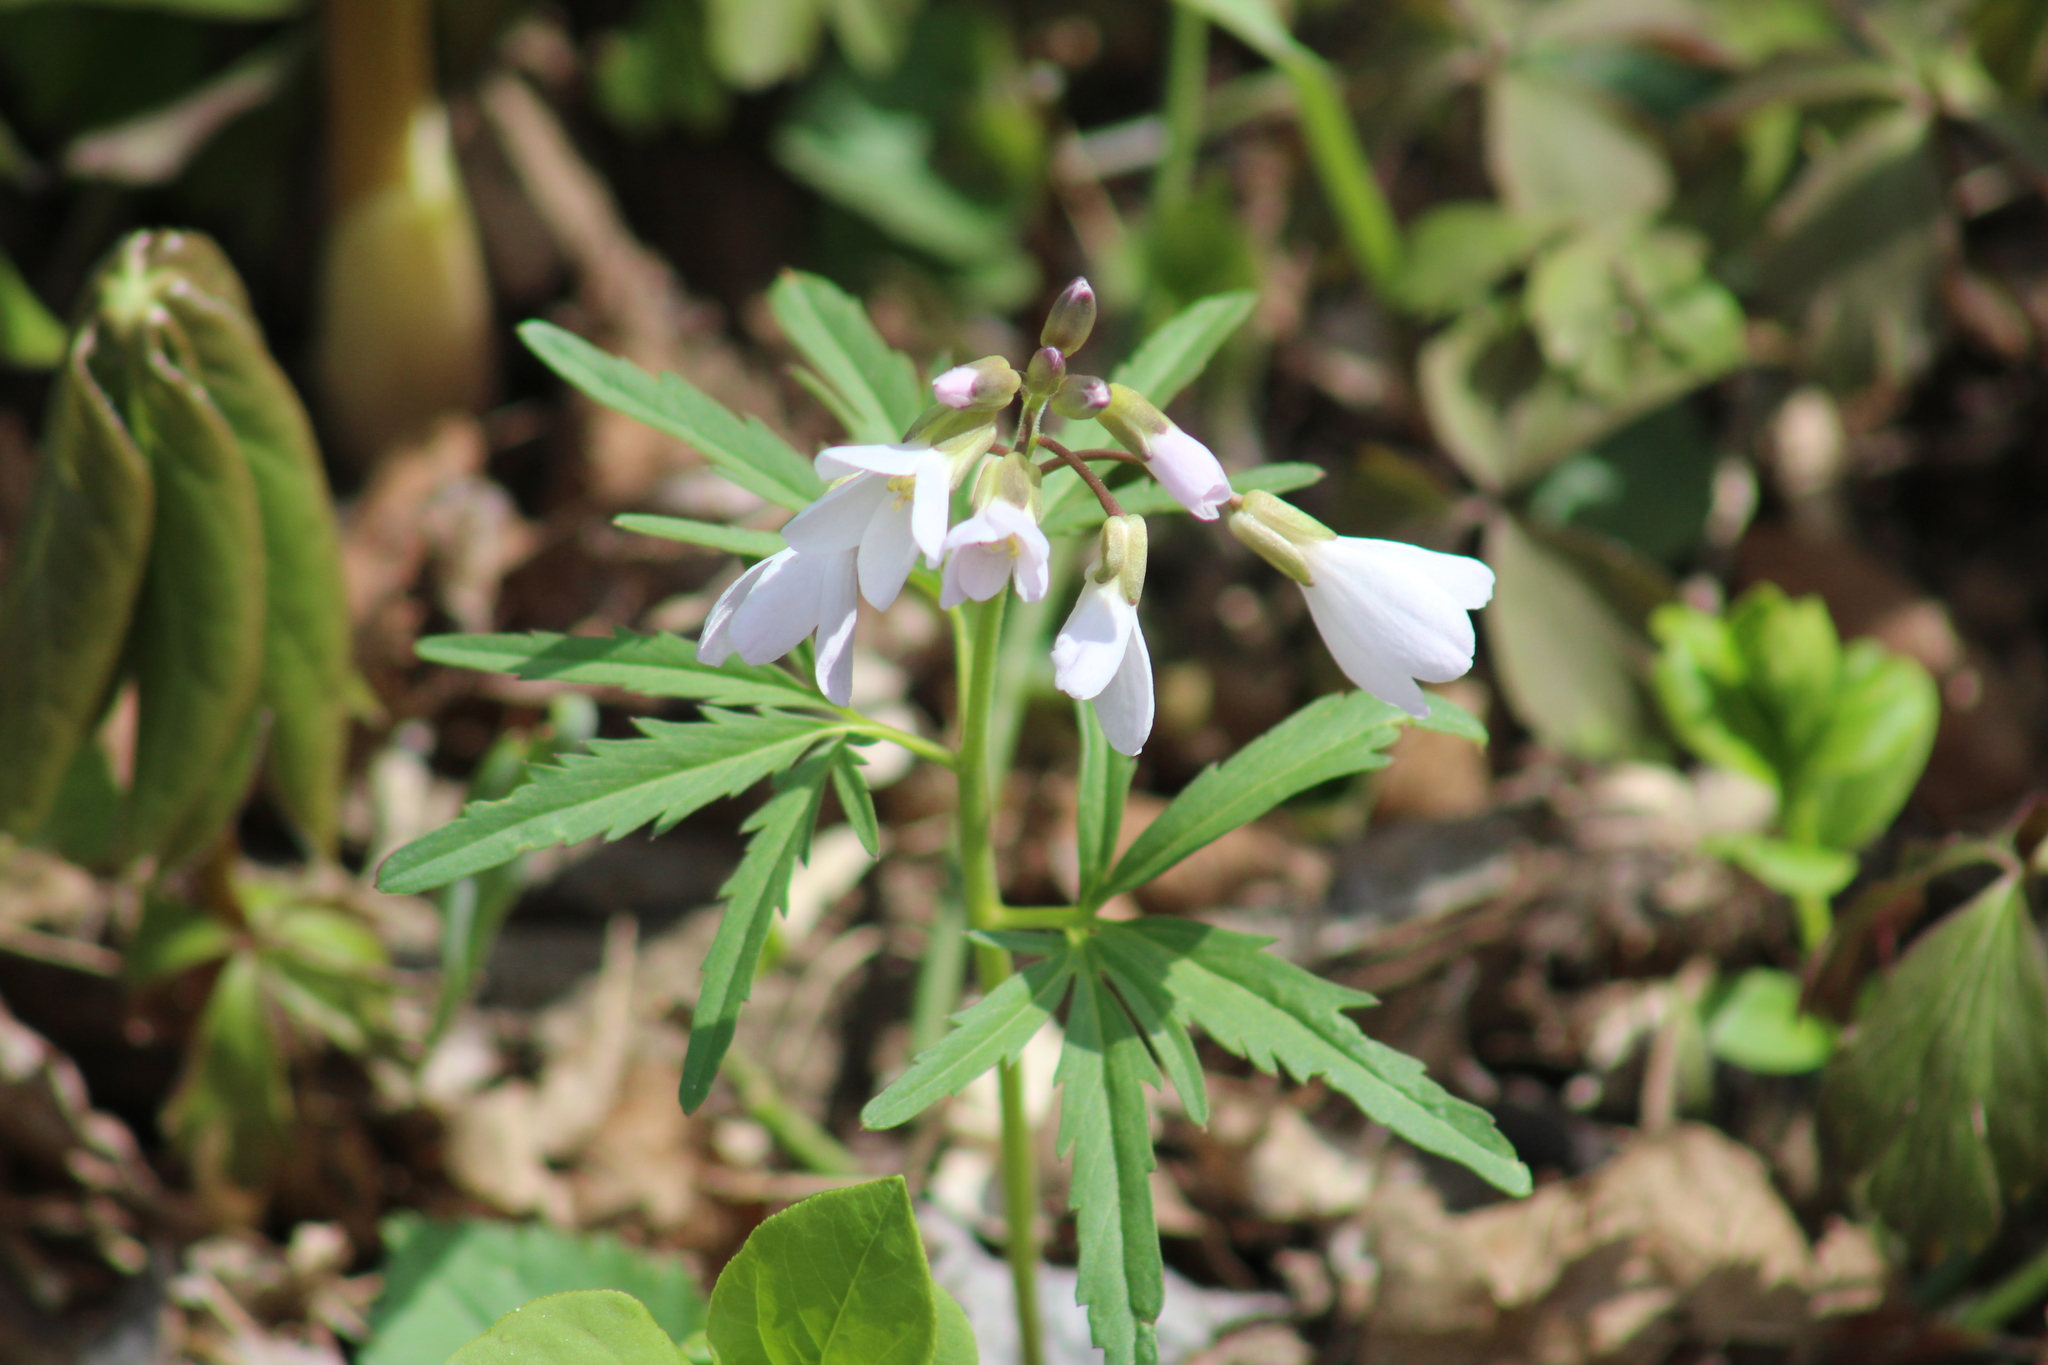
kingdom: Plantae
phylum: Tracheophyta
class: Magnoliopsida
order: Brassicales
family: Brassicaceae
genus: Cardamine
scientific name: Cardamine concatenata
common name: Cut-leaf toothcup
